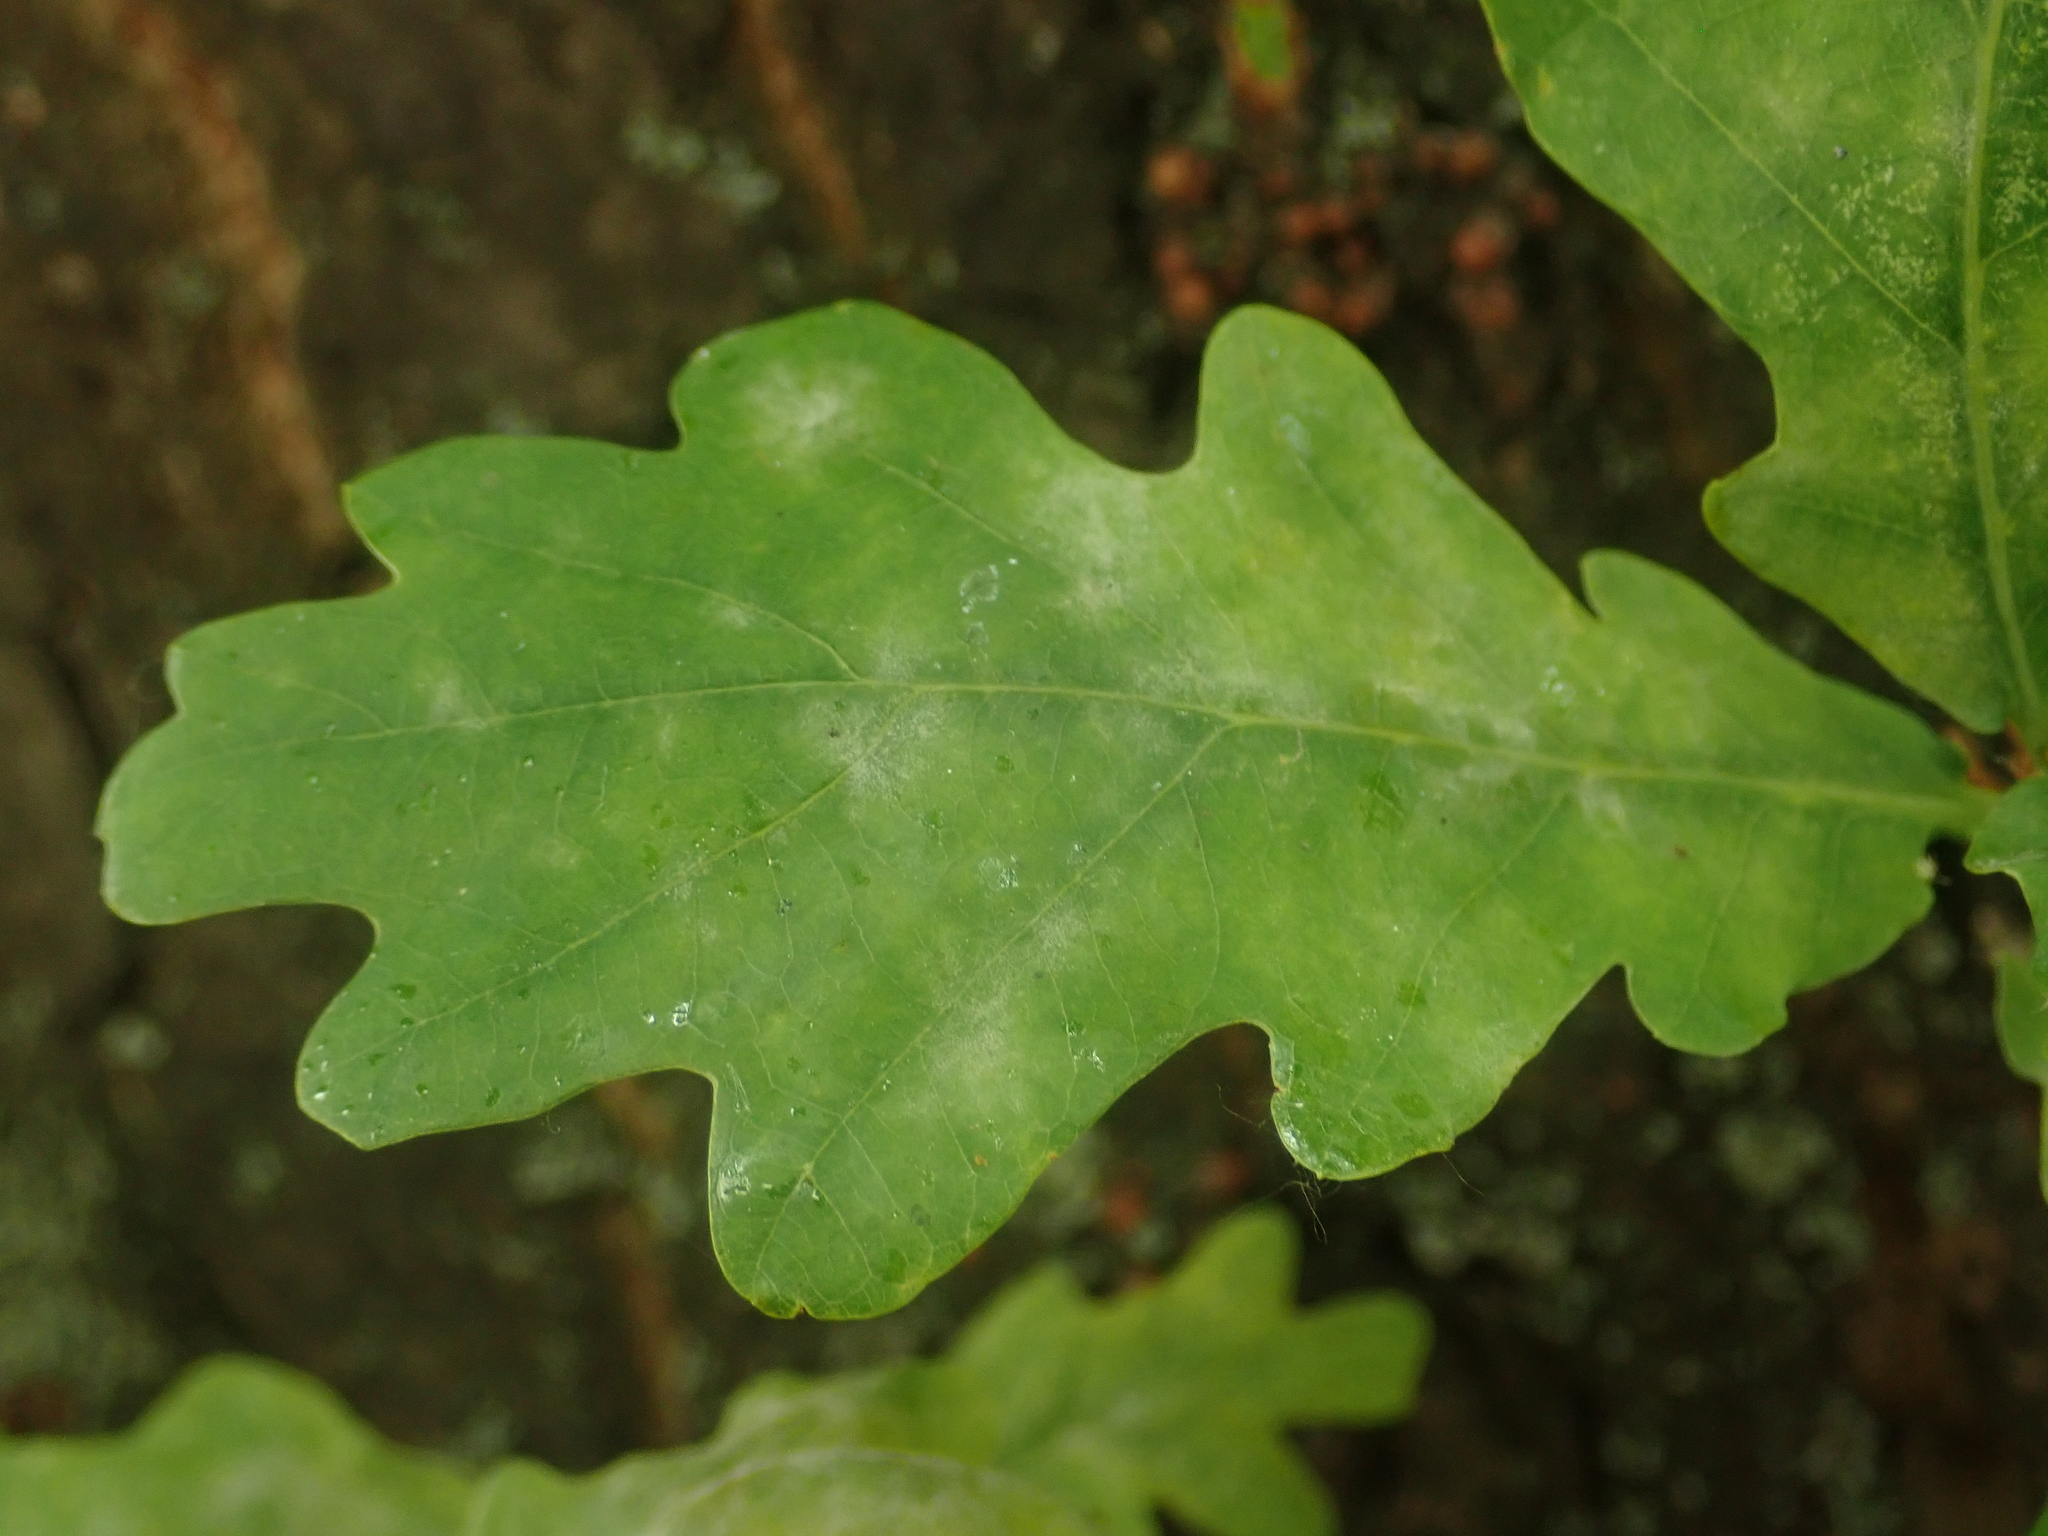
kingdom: Fungi
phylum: Ascomycota
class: Leotiomycetes
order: Helotiales
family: Erysiphaceae
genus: Erysiphe
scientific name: Erysiphe
